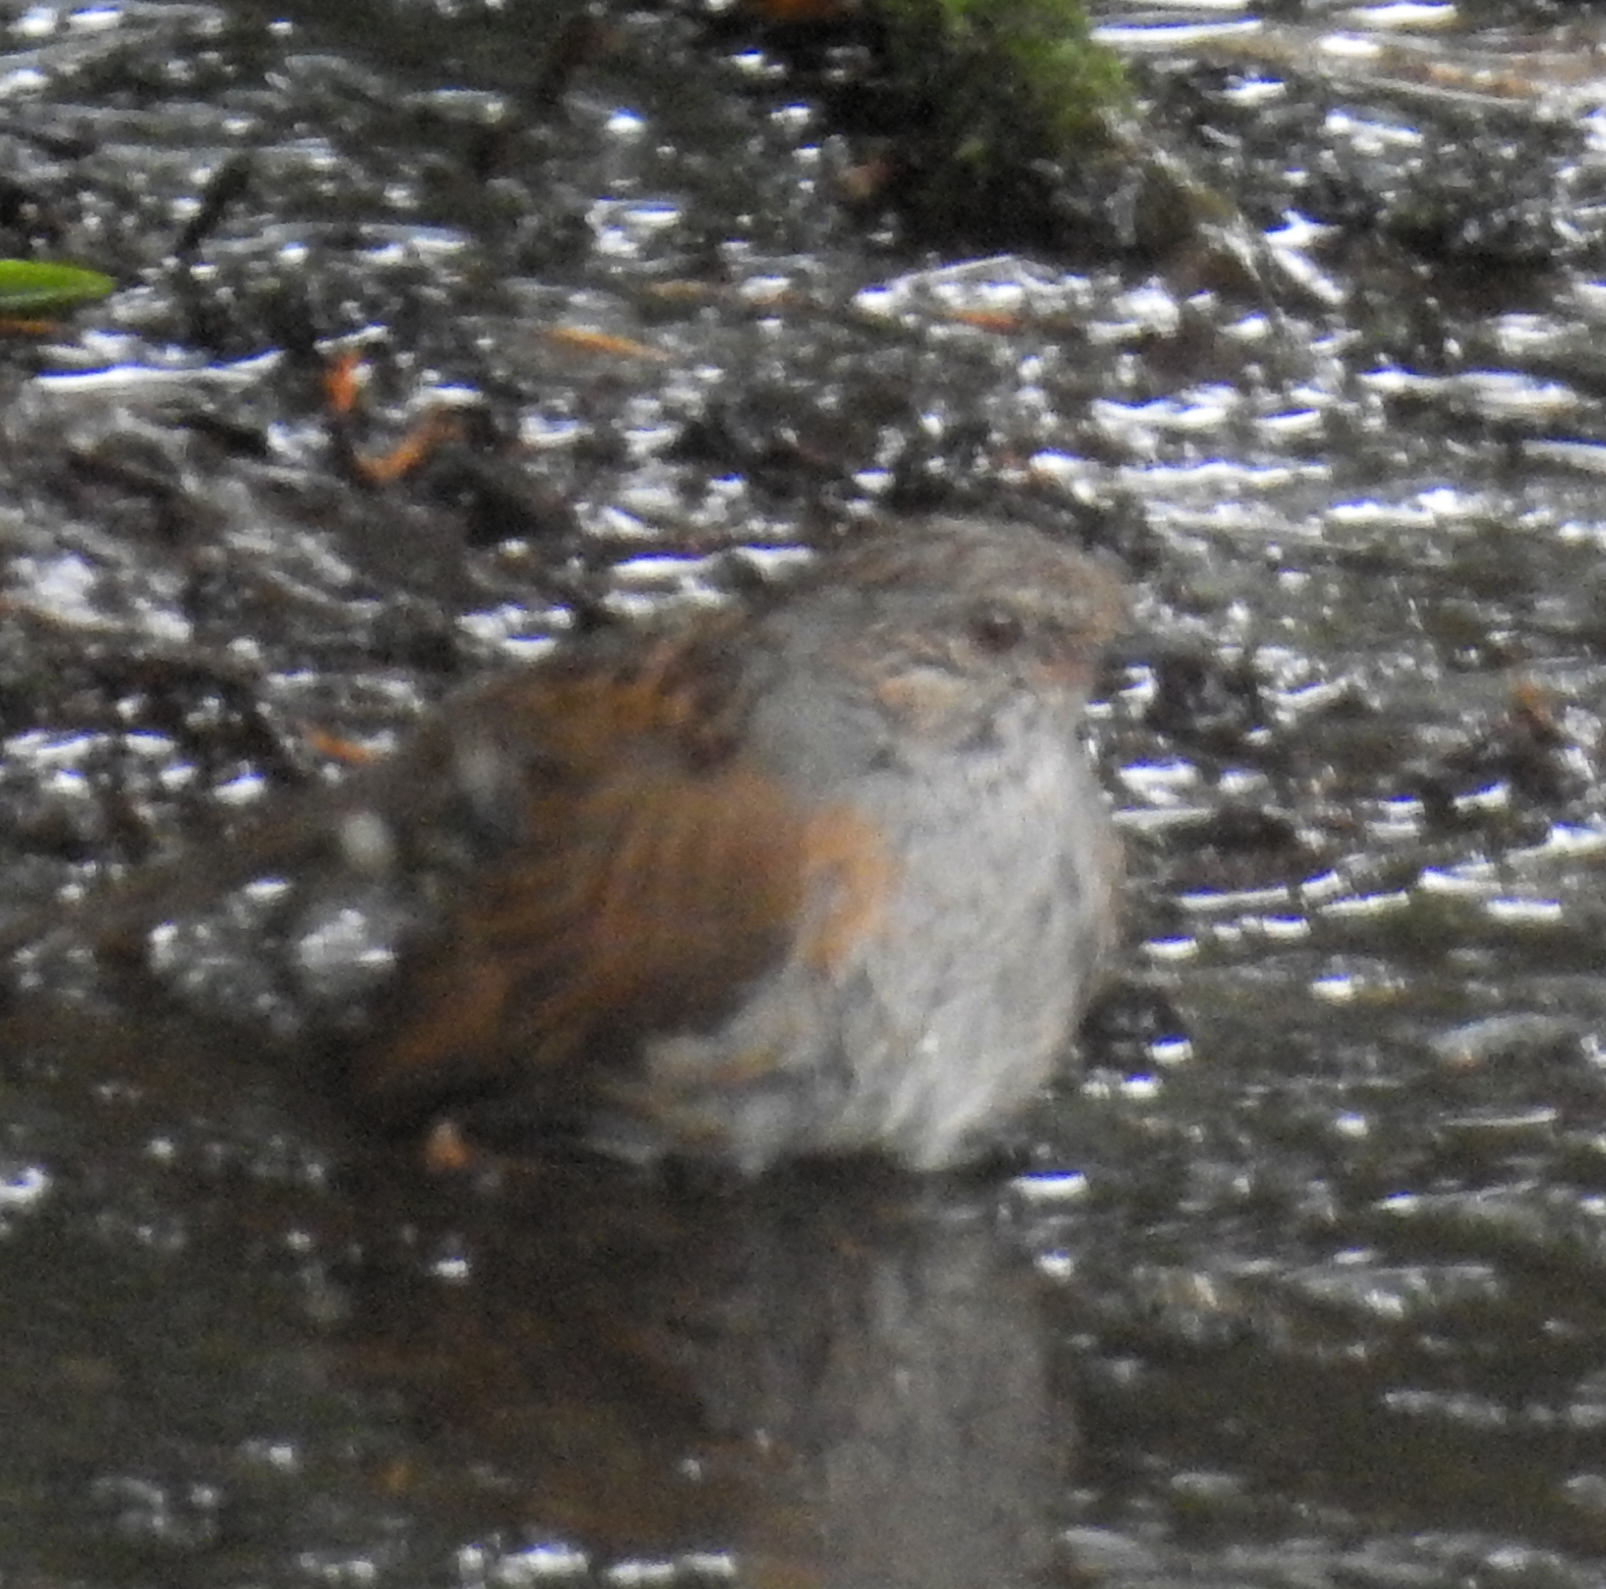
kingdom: Animalia
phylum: Chordata
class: Aves
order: Passeriformes
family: Prunellidae
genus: Prunella
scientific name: Prunella modularis
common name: Dunnock
